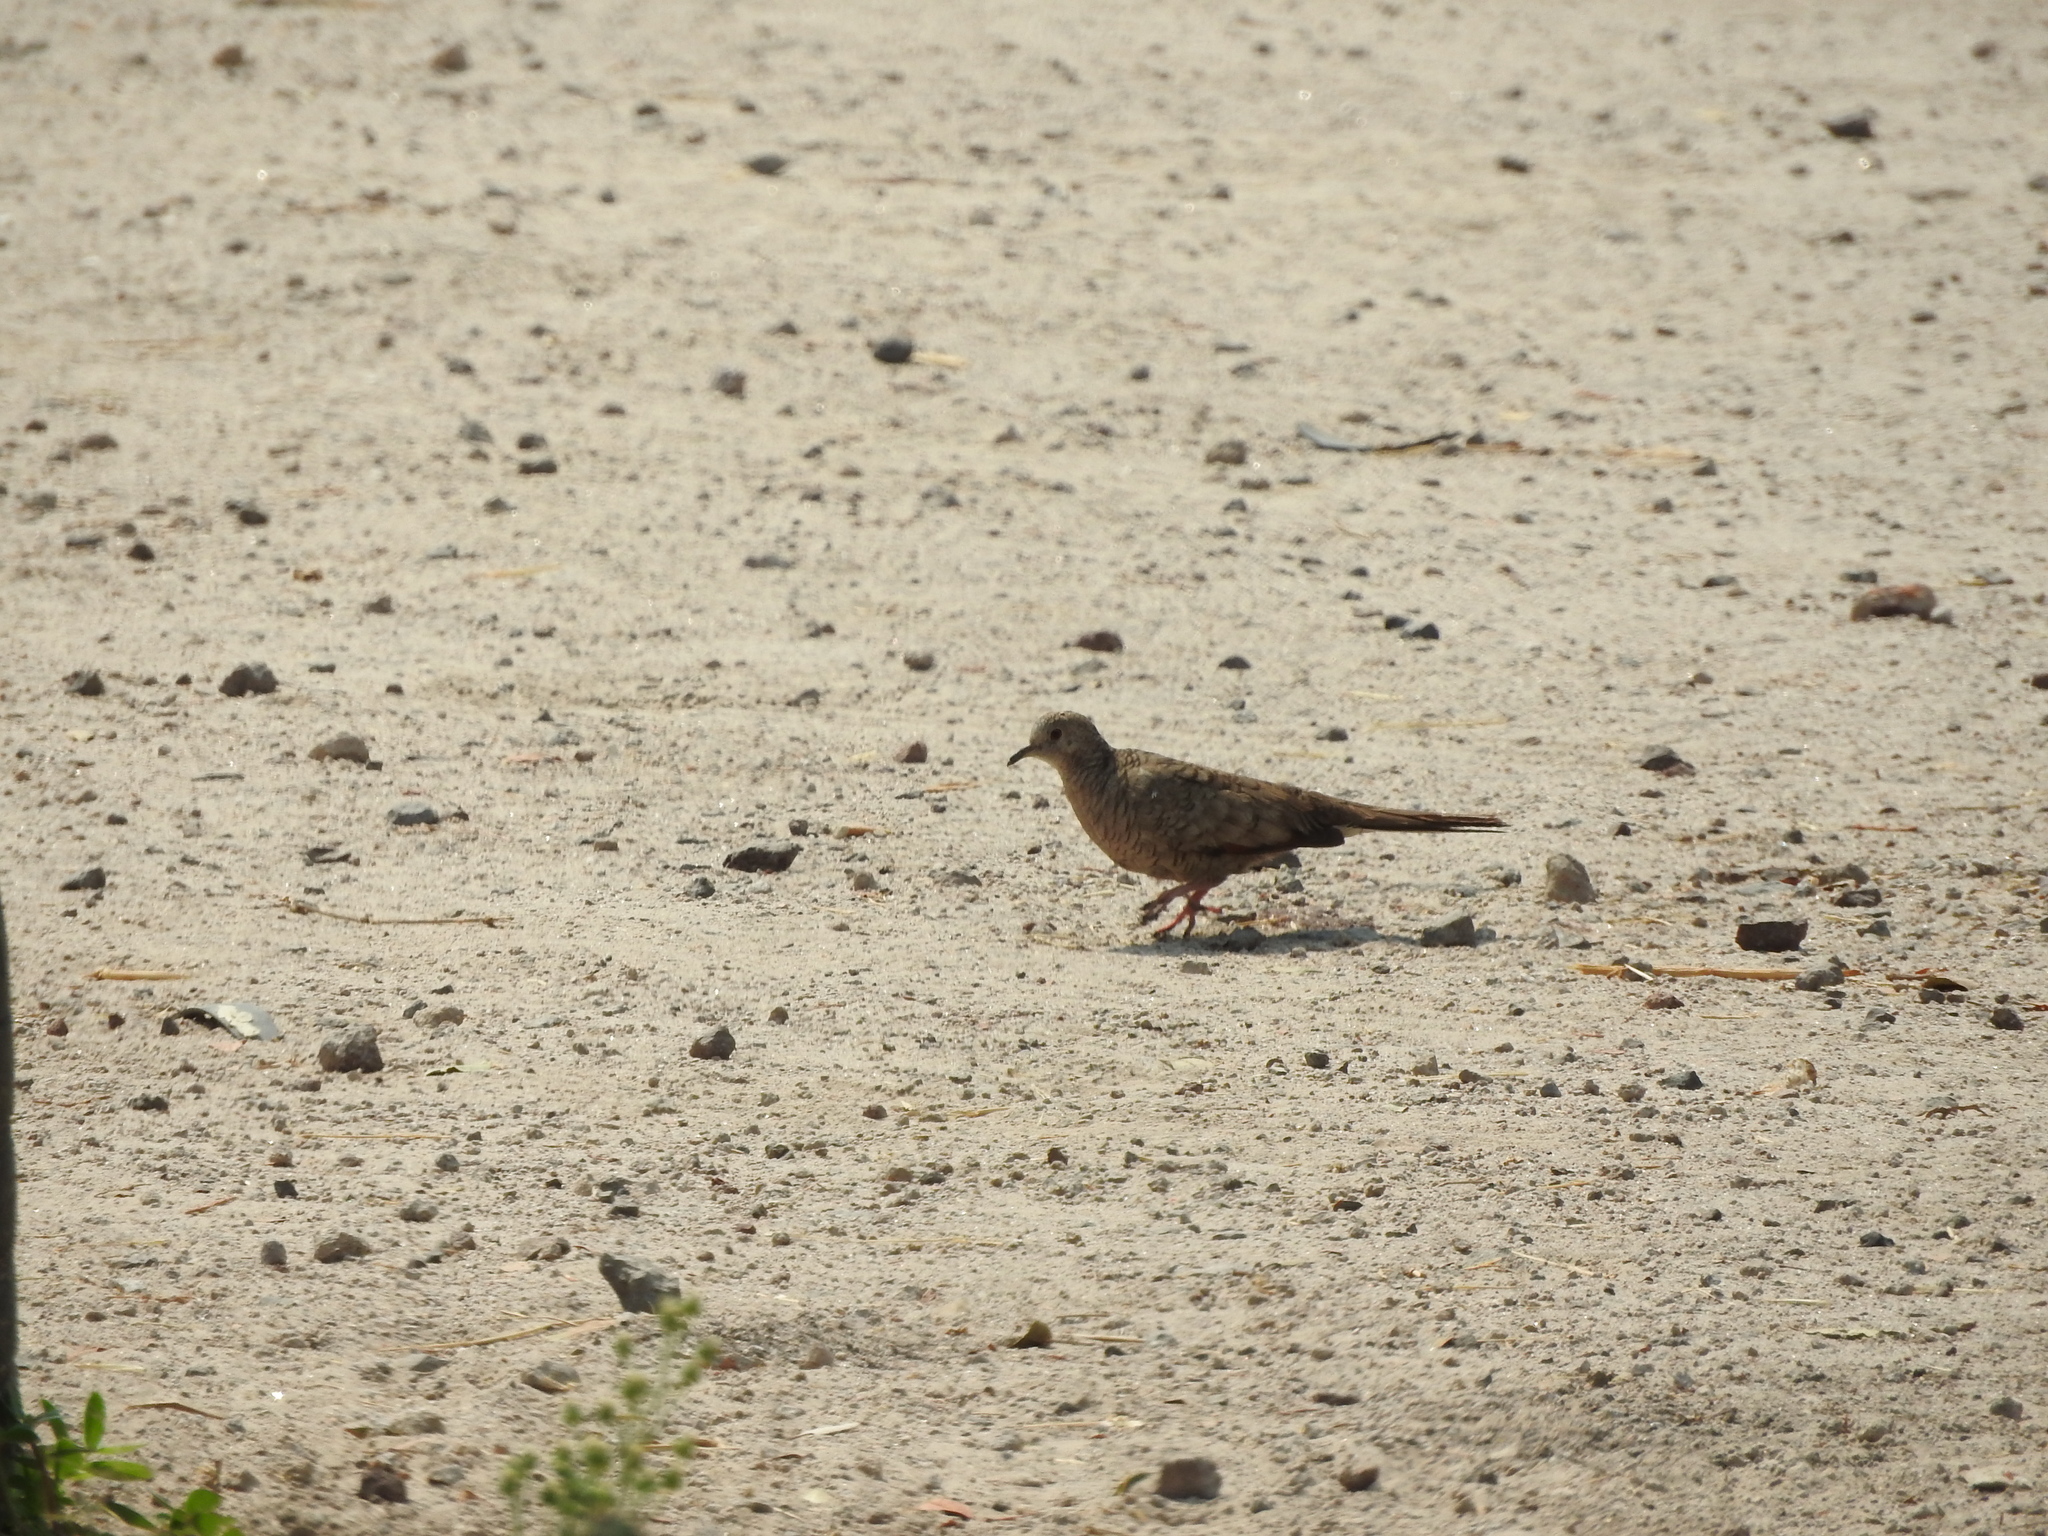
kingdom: Animalia
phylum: Chordata
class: Aves
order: Columbiformes
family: Columbidae
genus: Columbina
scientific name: Columbina inca
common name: Inca dove
